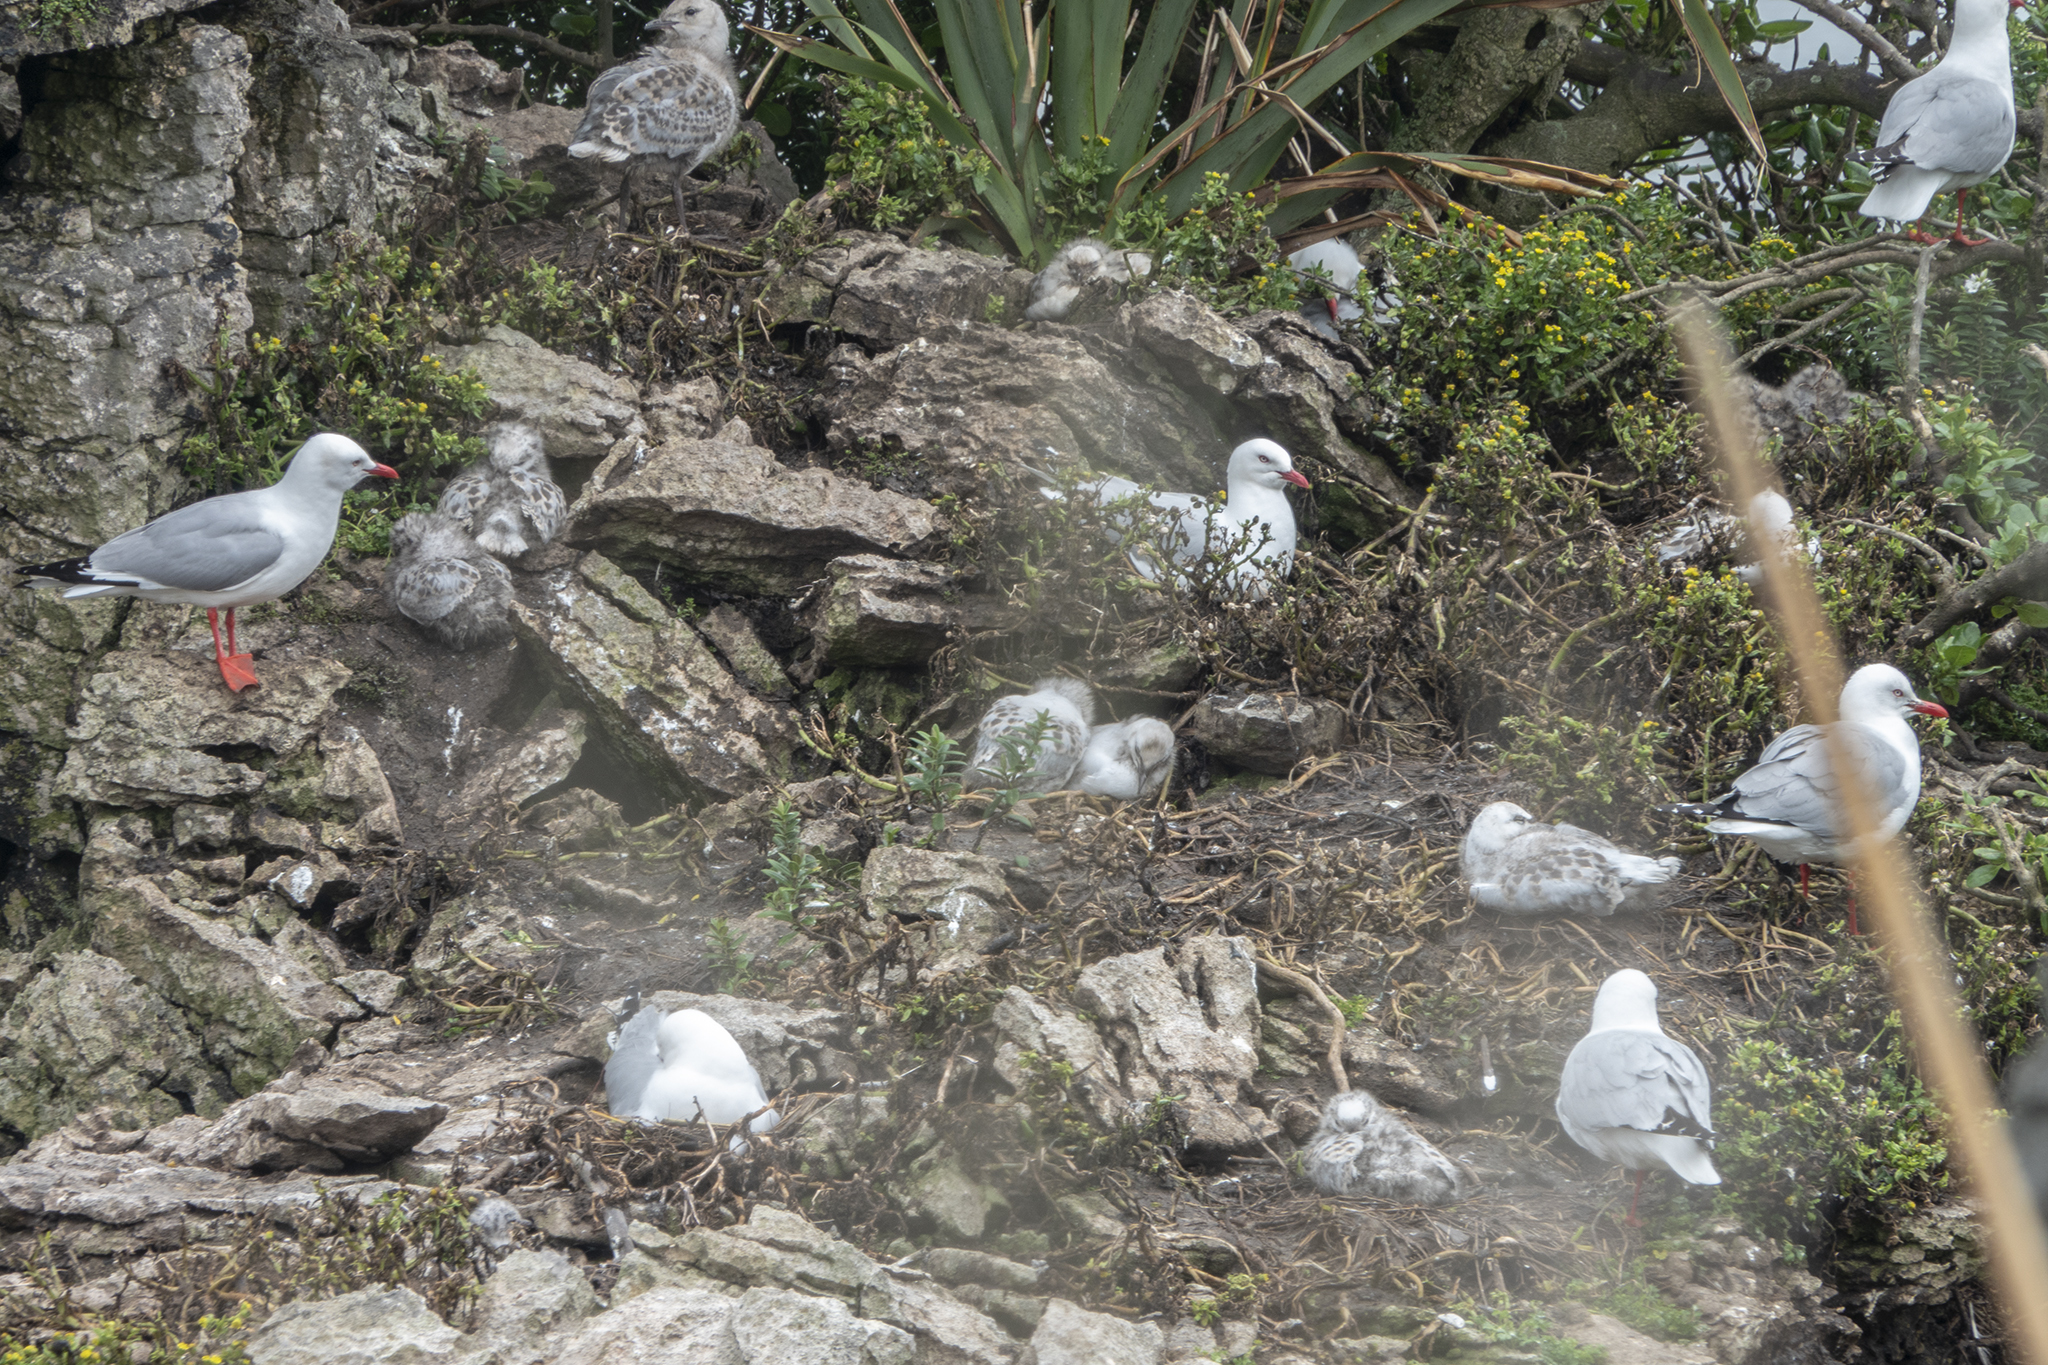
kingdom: Animalia
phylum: Chordata
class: Aves
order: Charadriiformes
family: Laridae
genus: Chroicocephalus
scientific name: Chroicocephalus novaehollandiae
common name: Silver gull
